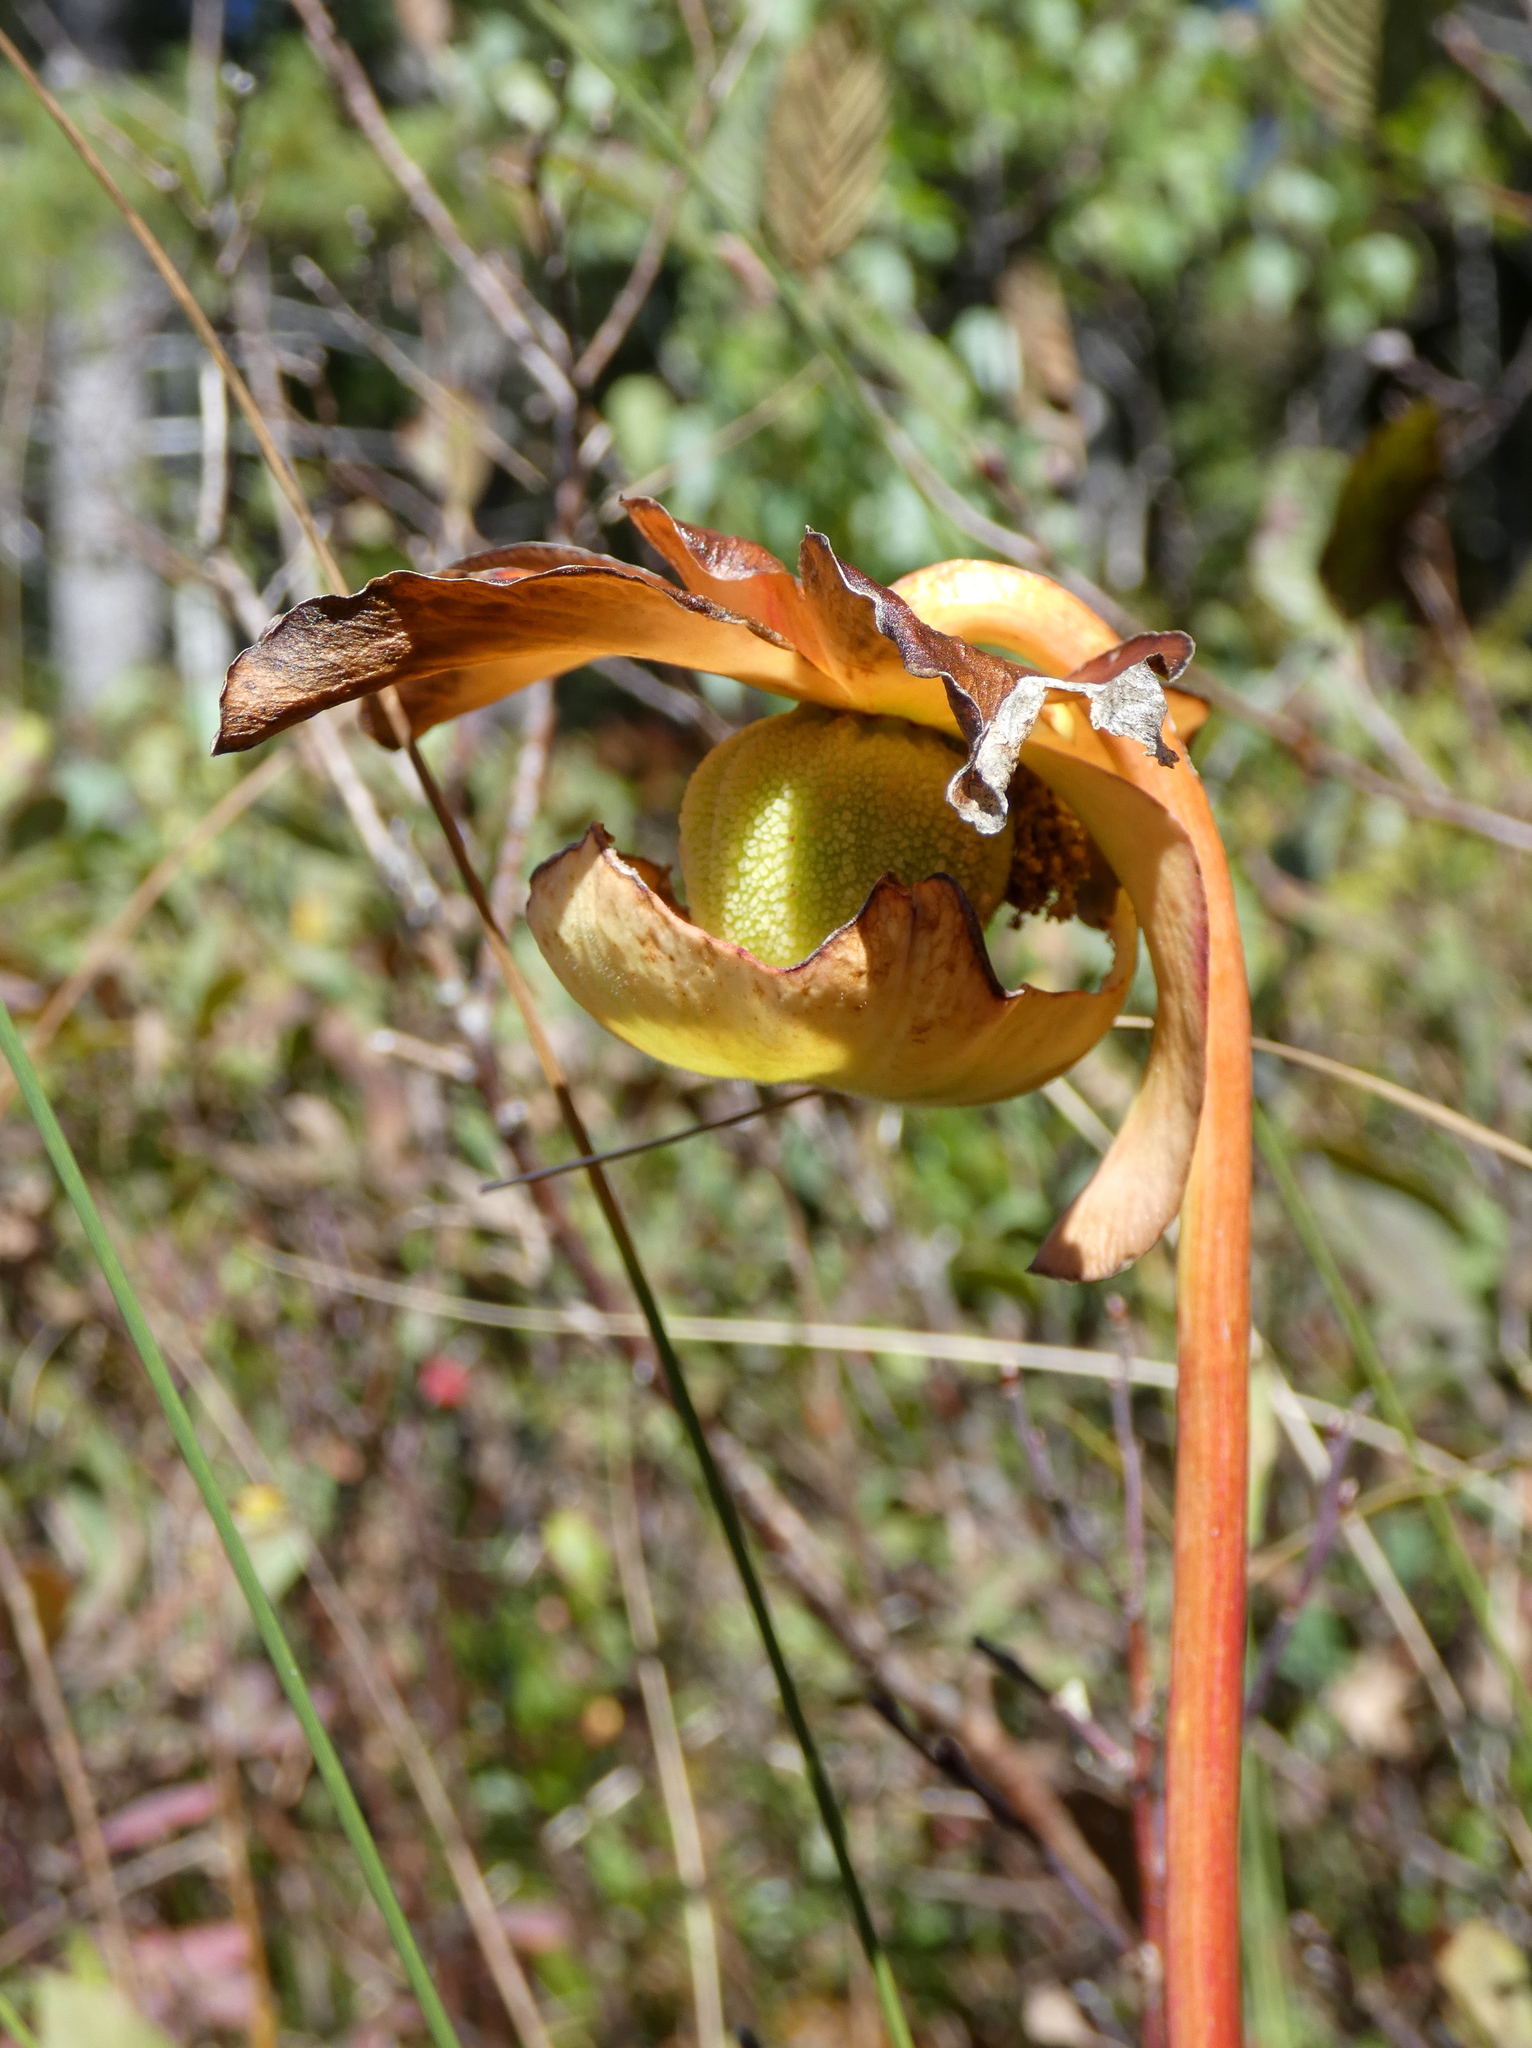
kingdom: Plantae
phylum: Tracheophyta
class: Magnoliopsida
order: Ericales
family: Sarraceniaceae
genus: Sarracenia
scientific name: Sarracenia purpurea
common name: Pitcherplant
